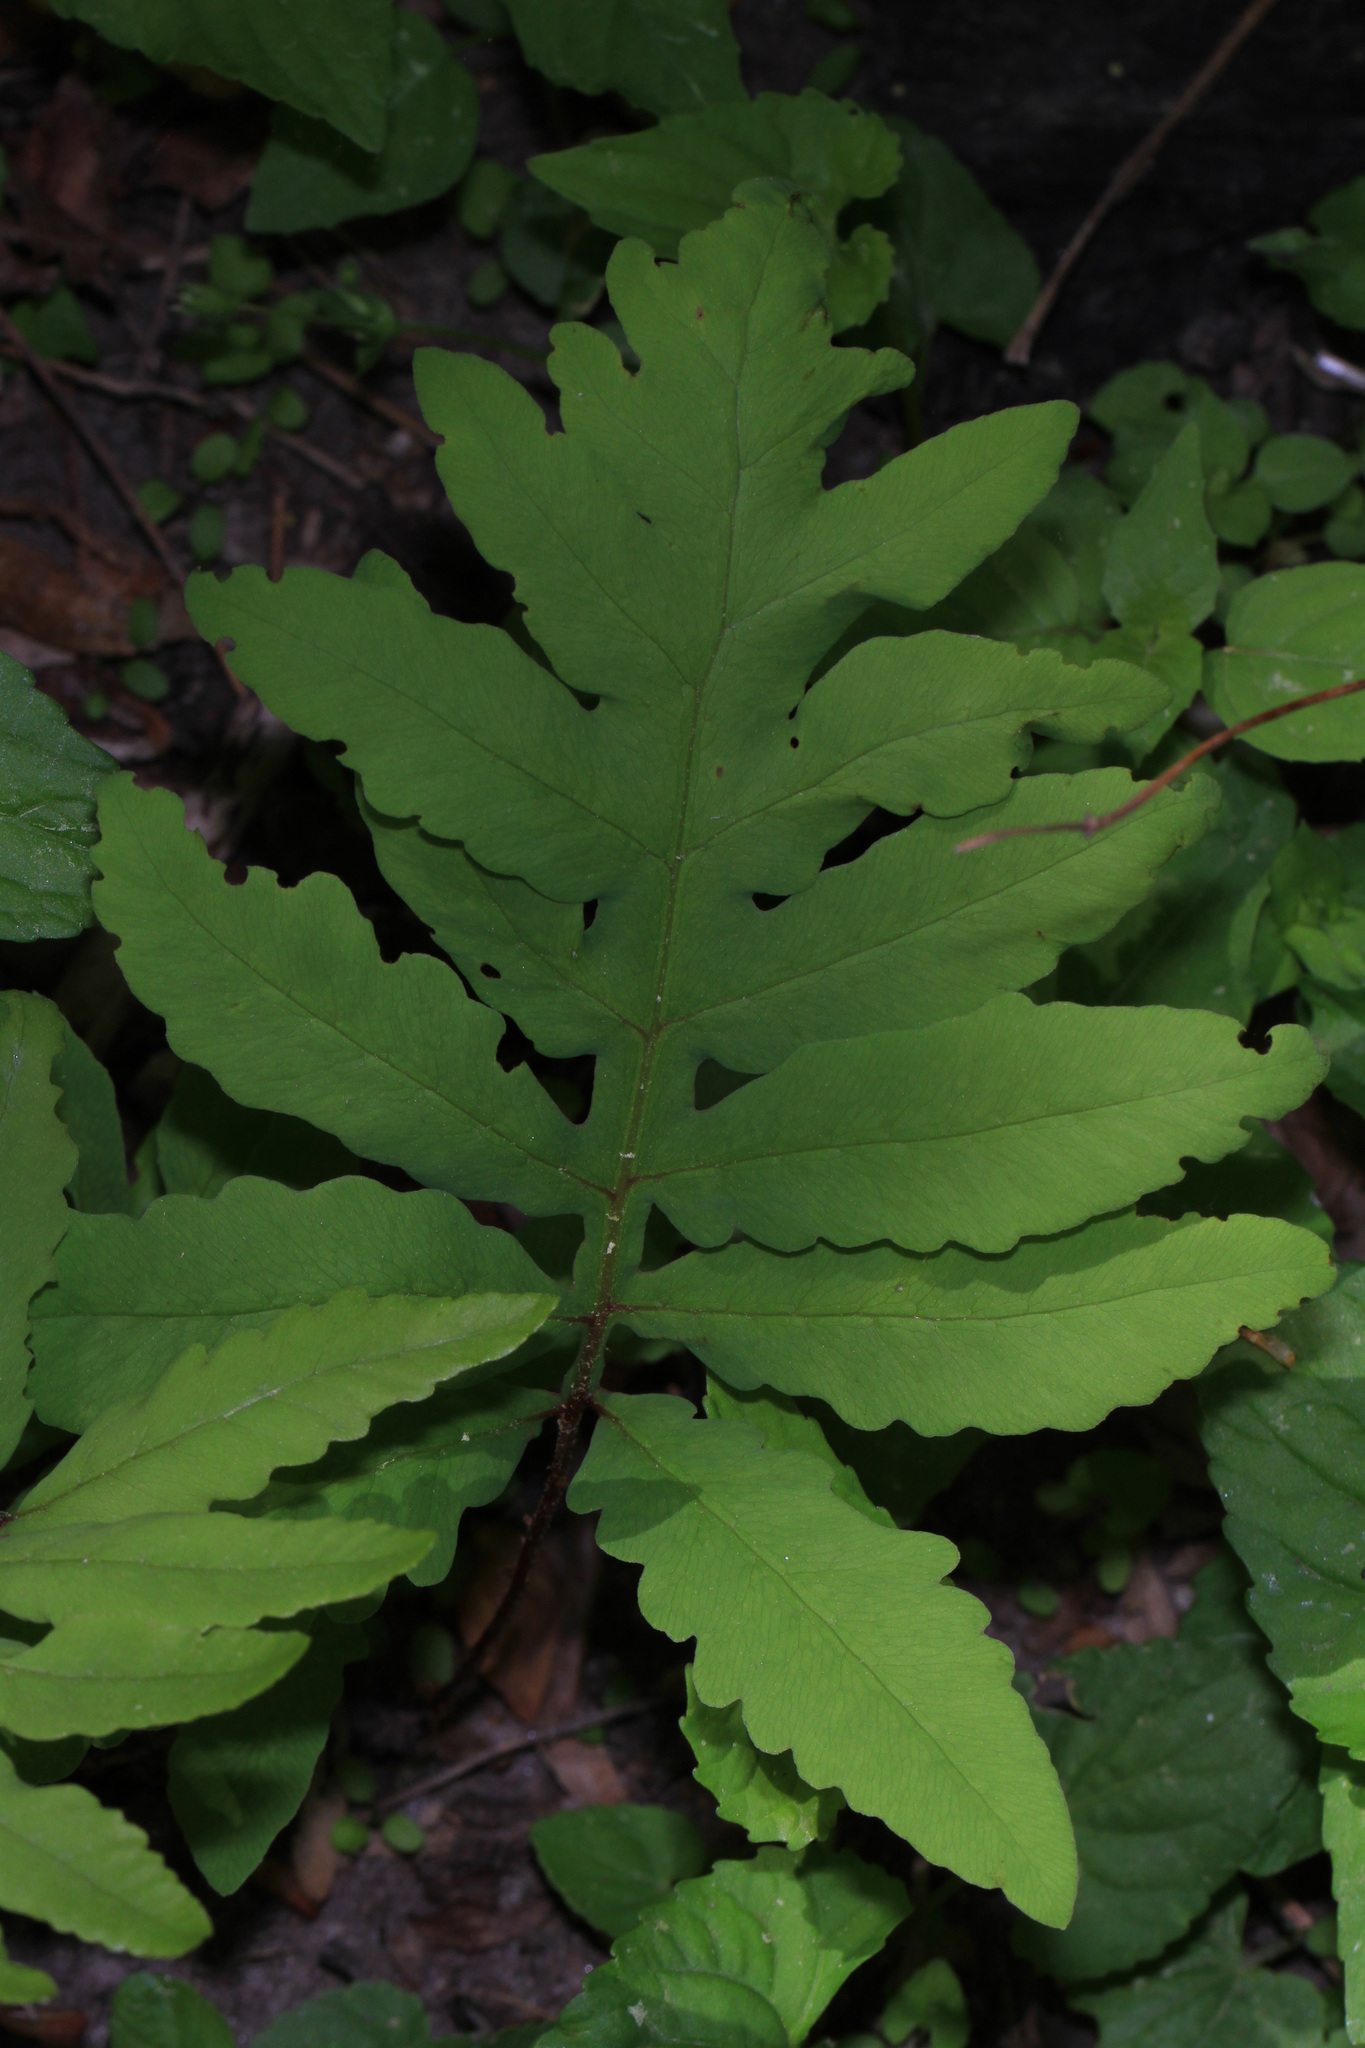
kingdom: Plantae
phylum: Tracheophyta
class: Polypodiopsida
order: Polypodiales
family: Onocleaceae
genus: Onoclea
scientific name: Onoclea sensibilis
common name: Sensitive fern
